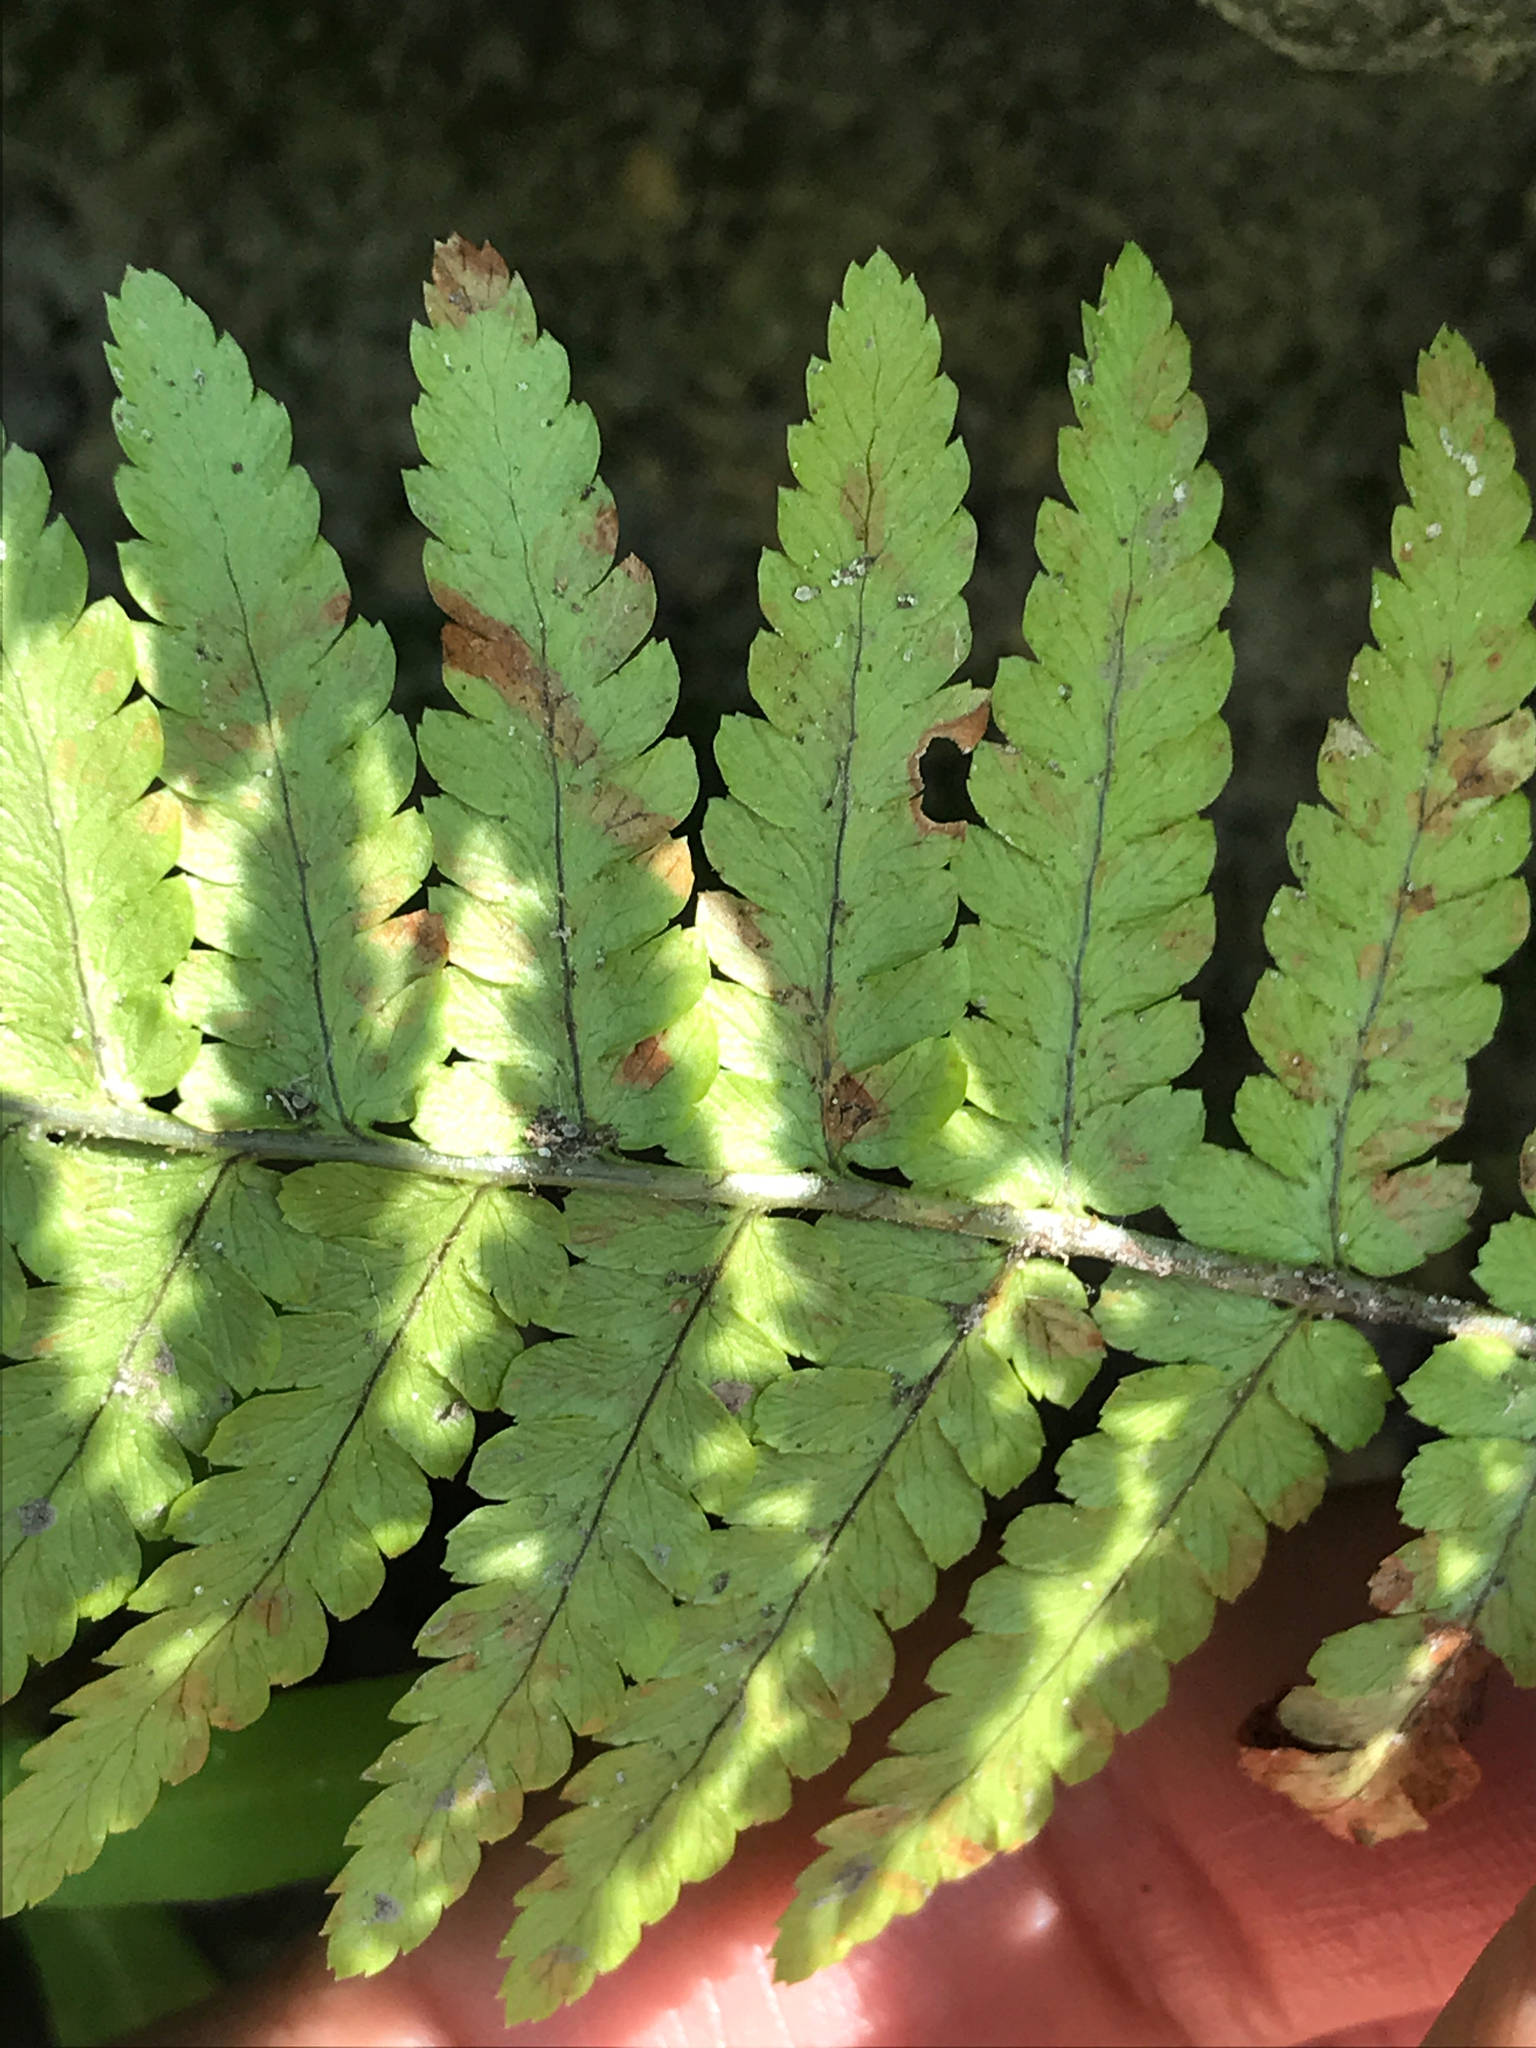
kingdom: Plantae
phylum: Tracheophyta
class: Polypodiopsida
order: Polypodiales
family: Dryopteridaceae
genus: Dryopteris
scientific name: Dryopteris filix-mas
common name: Male fern
